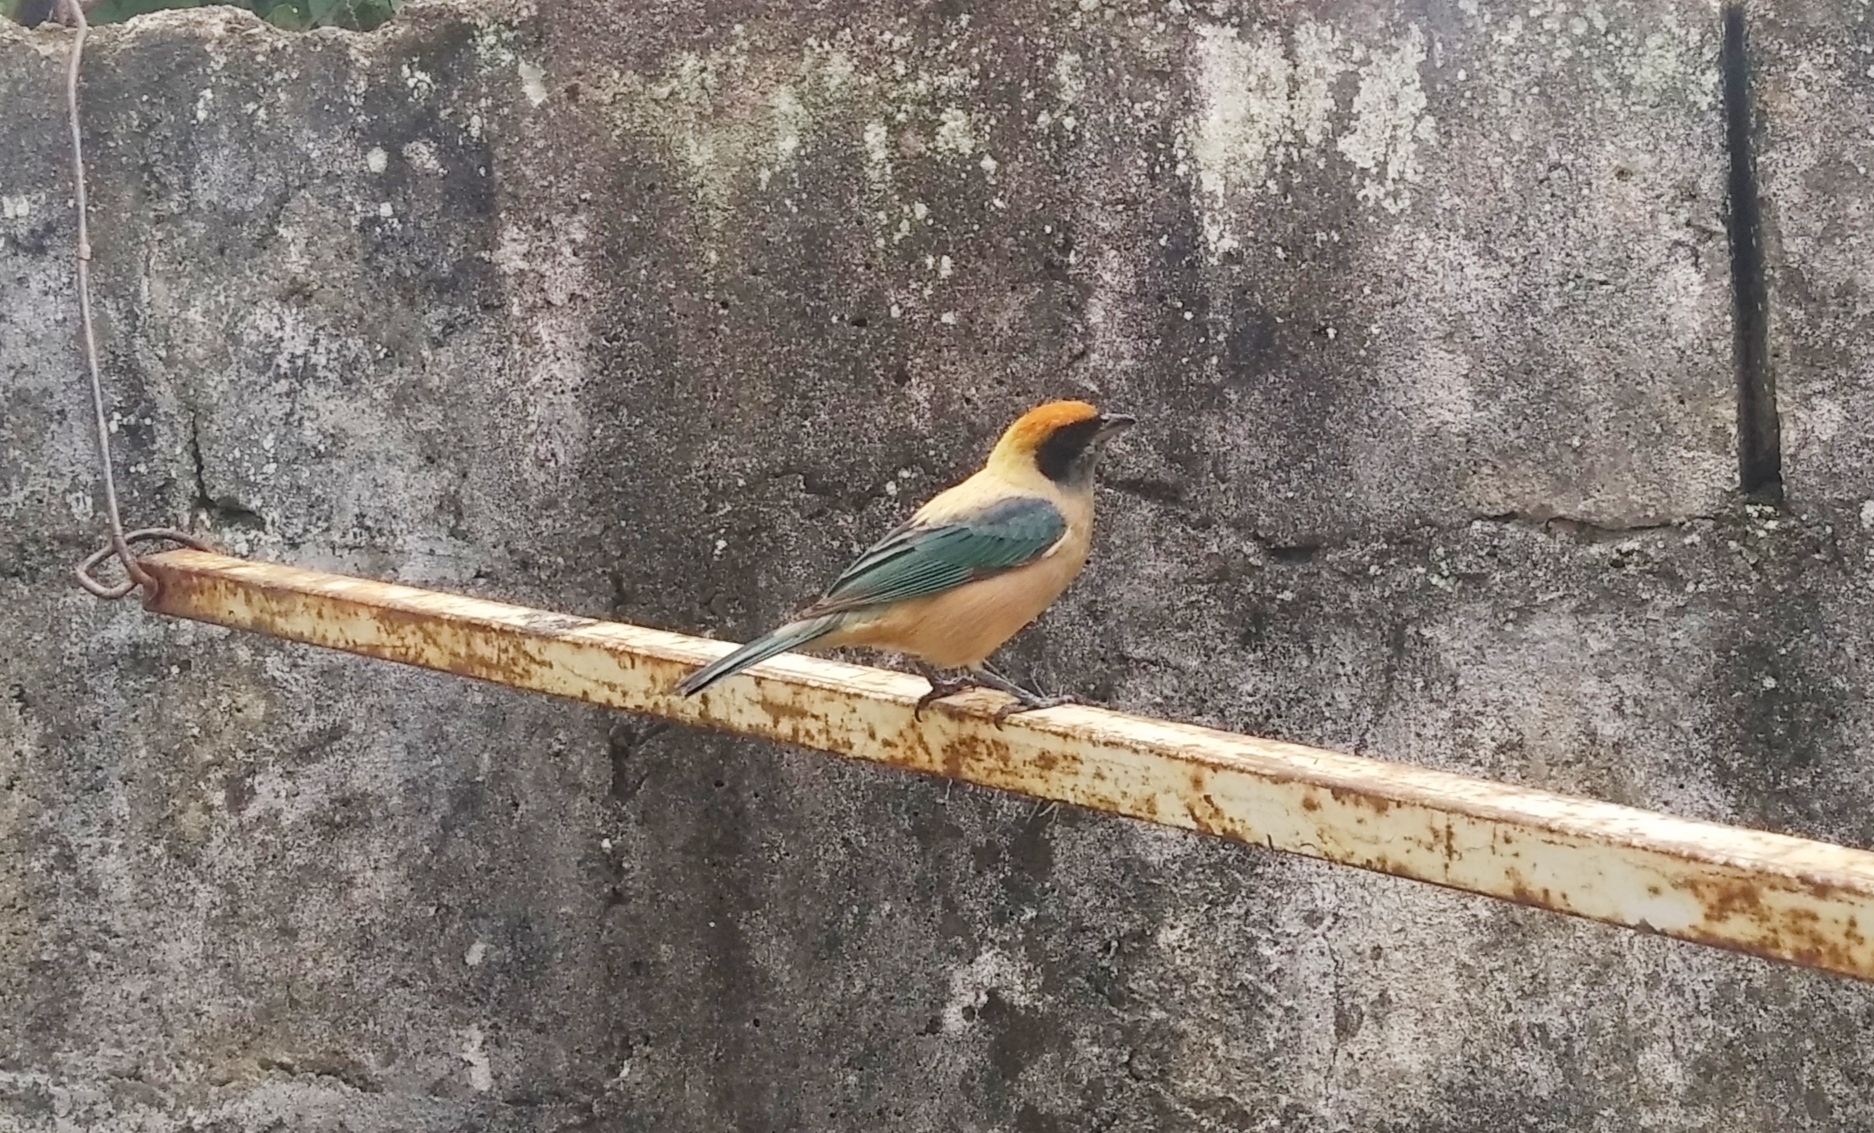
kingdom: Animalia
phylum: Chordata
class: Aves
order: Passeriformes
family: Thraupidae
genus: Stilpnia
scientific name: Stilpnia cayana
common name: Burnished-buff tanager
